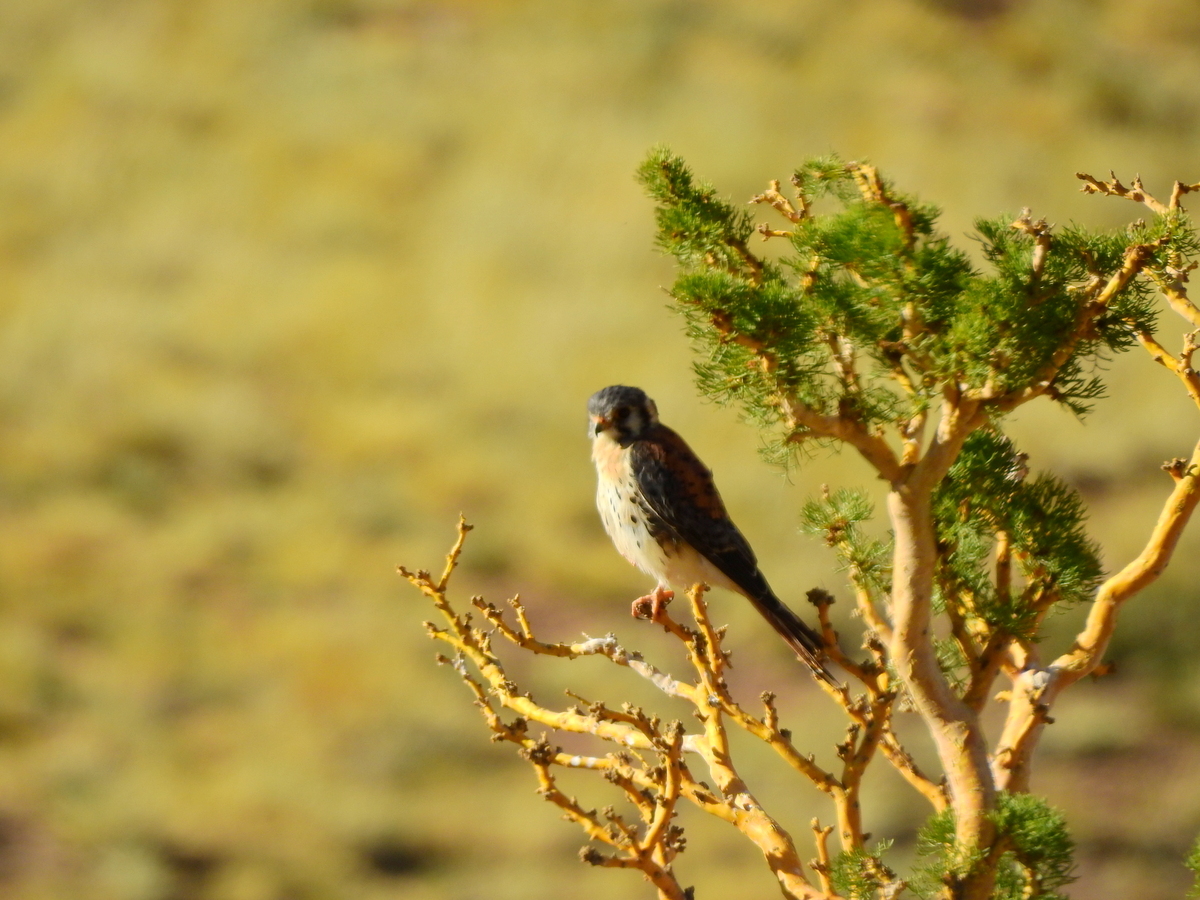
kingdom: Animalia
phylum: Chordata
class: Aves
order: Falconiformes
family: Falconidae
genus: Falco
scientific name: Falco sparverius
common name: American kestrel
